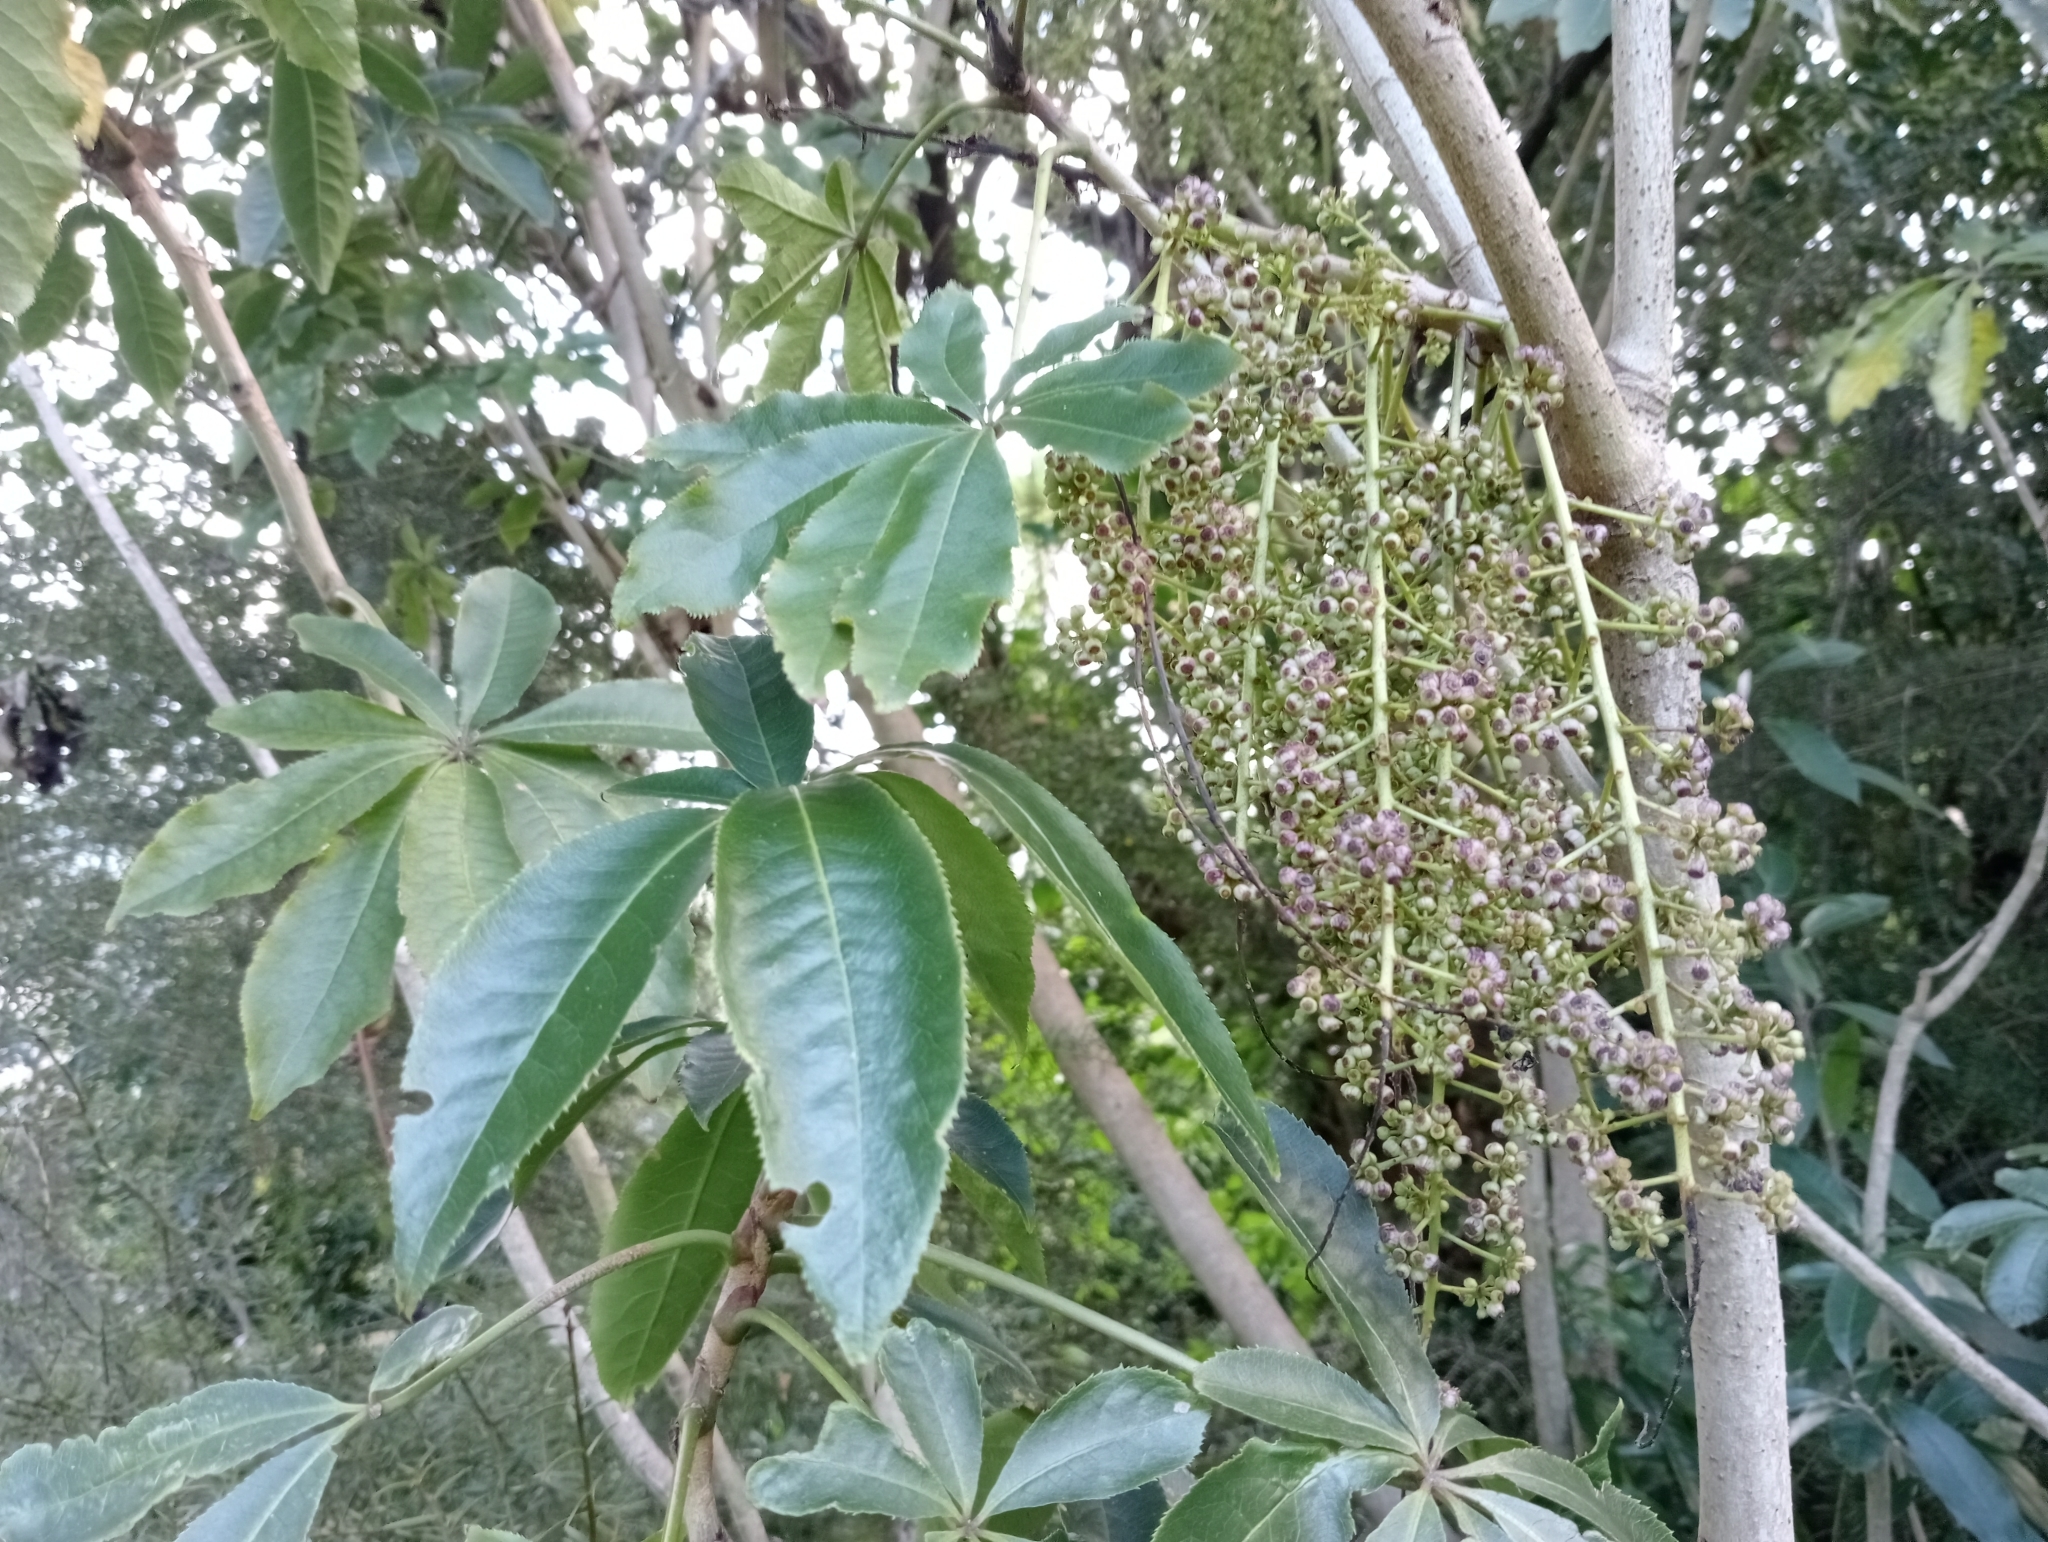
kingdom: Plantae
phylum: Tracheophyta
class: Magnoliopsida
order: Apiales
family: Araliaceae
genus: Schefflera
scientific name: Schefflera digitata
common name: Pate
